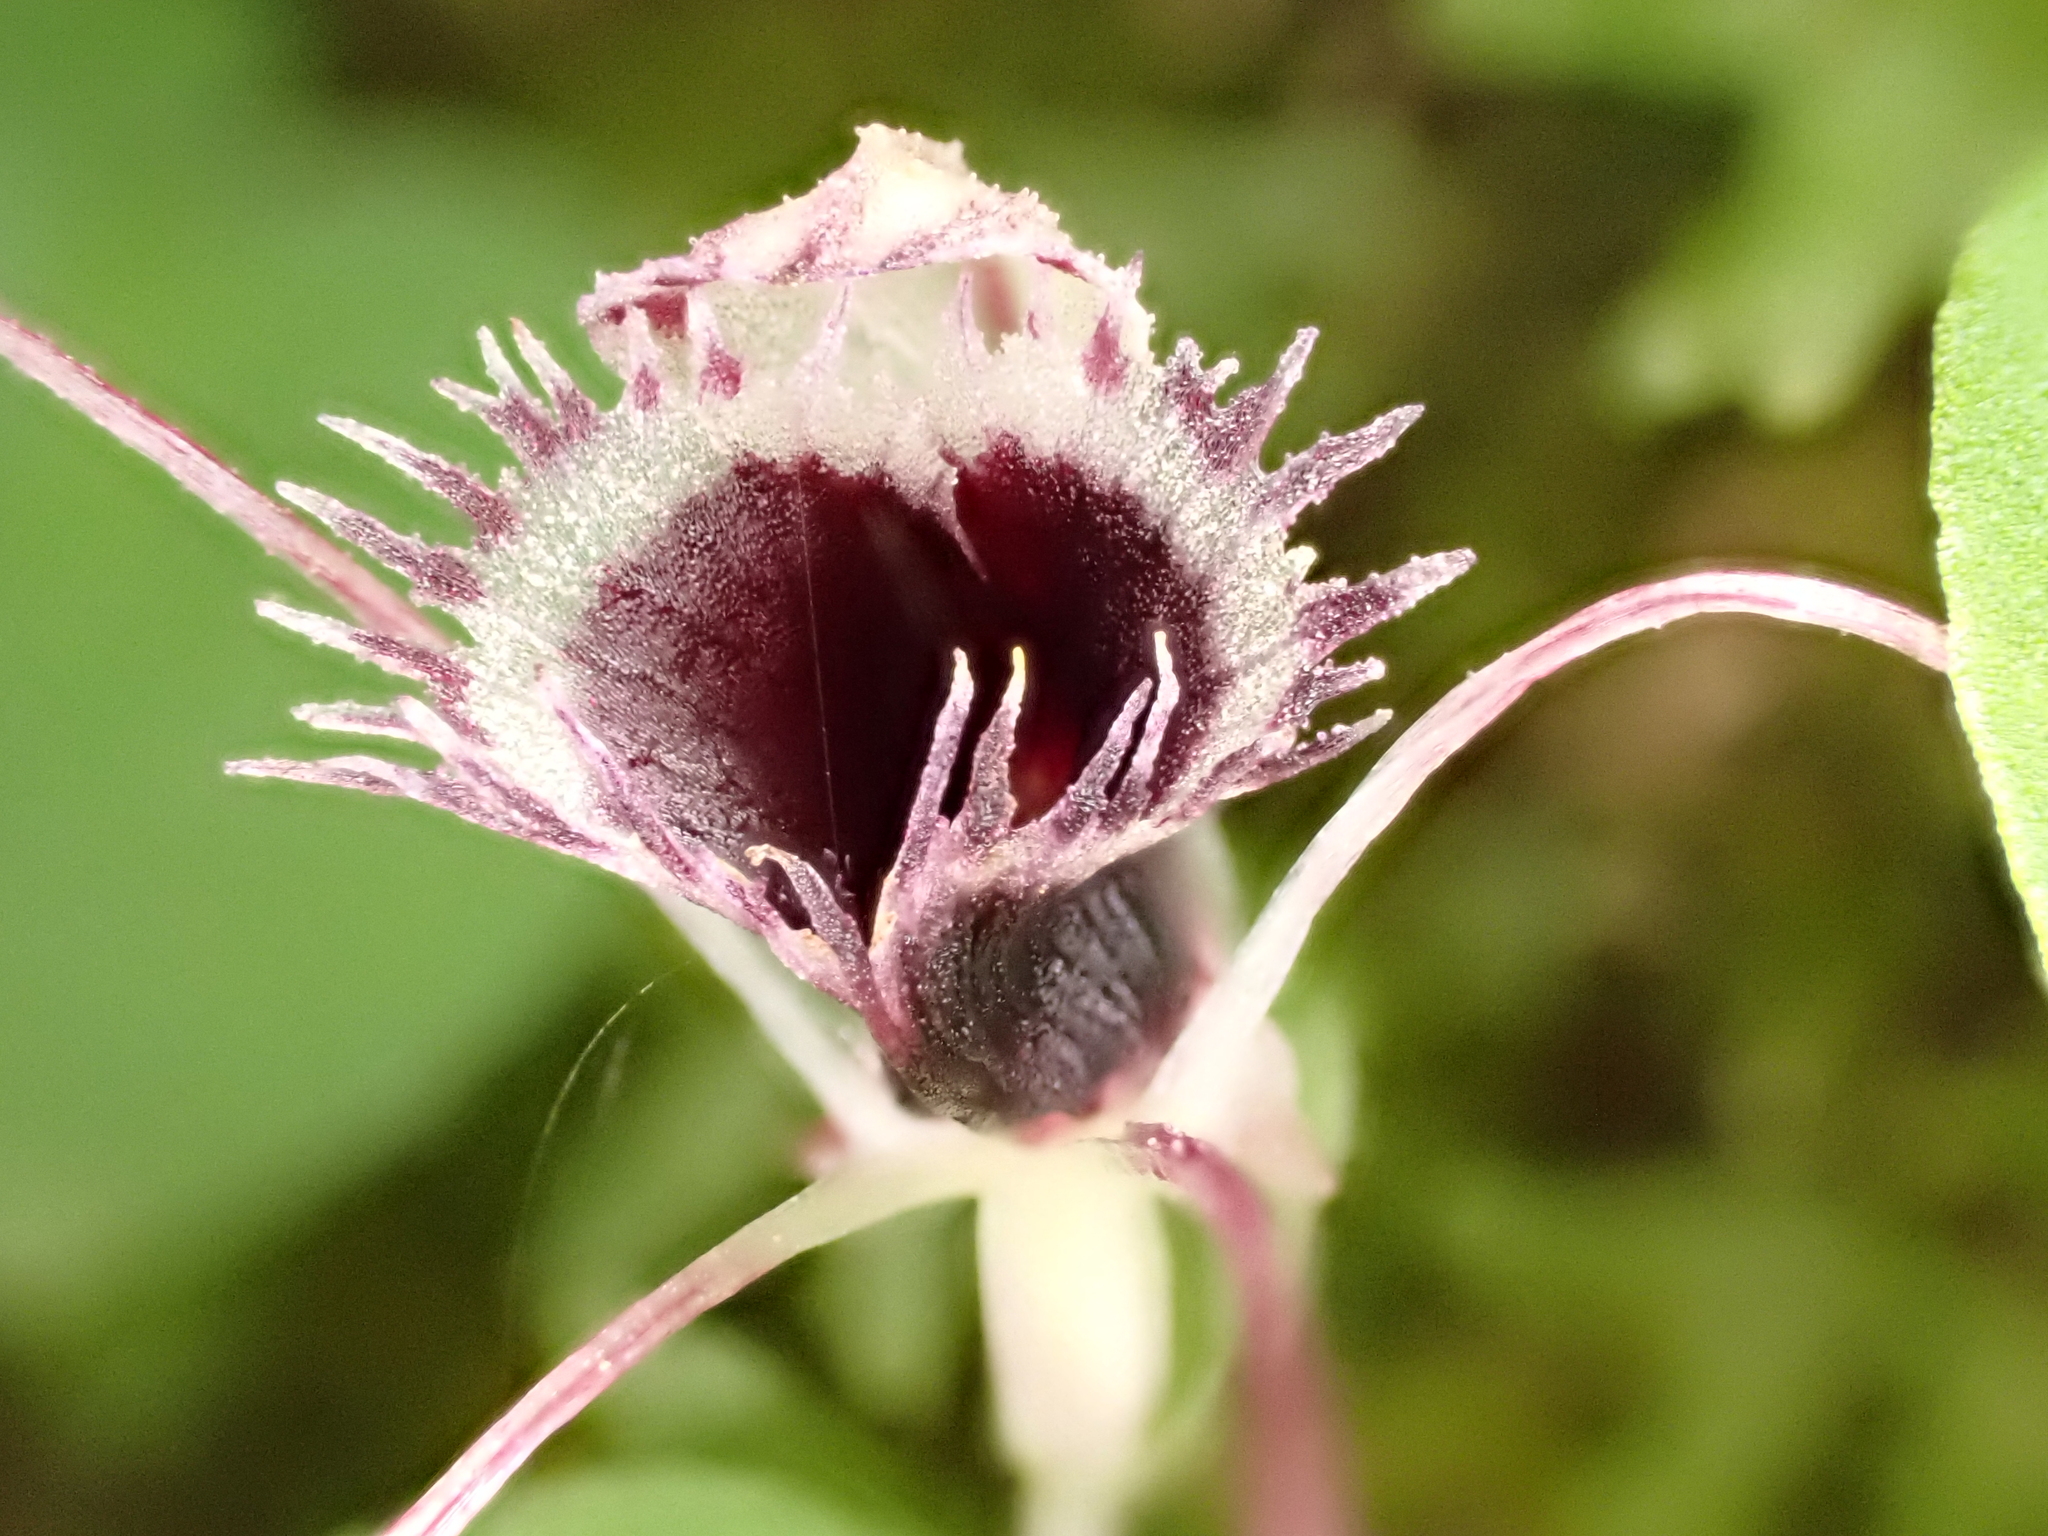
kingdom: Plantae
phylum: Tracheophyta
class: Liliopsida
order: Asparagales
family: Orchidaceae
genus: Corybas
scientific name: Corybas oblongus
